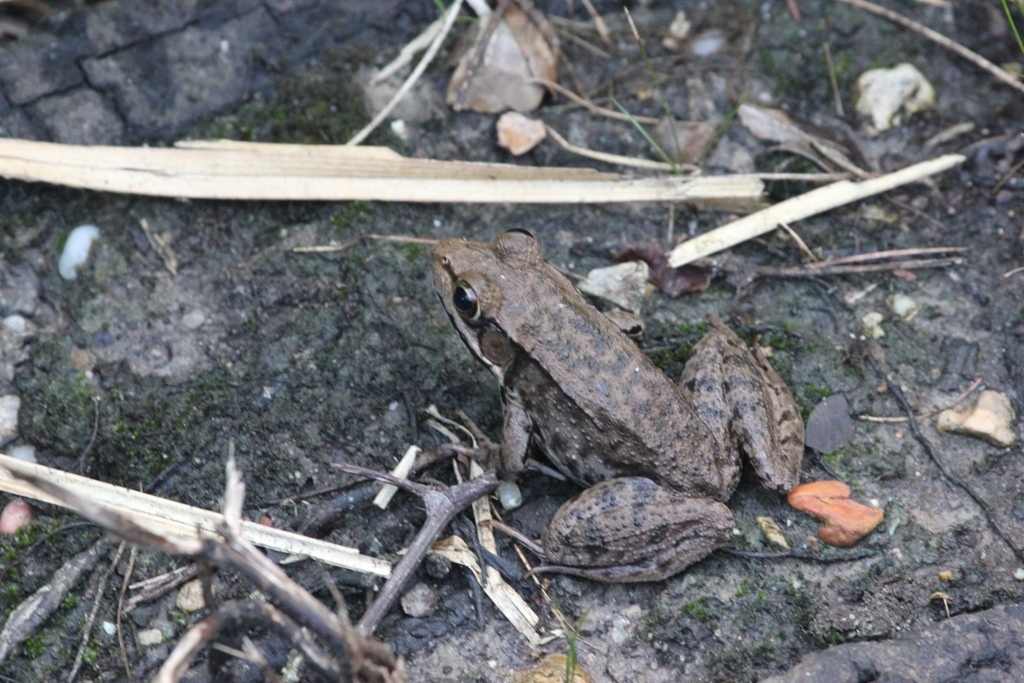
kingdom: Animalia
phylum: Chordata
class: Amphibia
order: Anura
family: Ranidae
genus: Lithobates
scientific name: Lithobates clamitans
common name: Green frog
